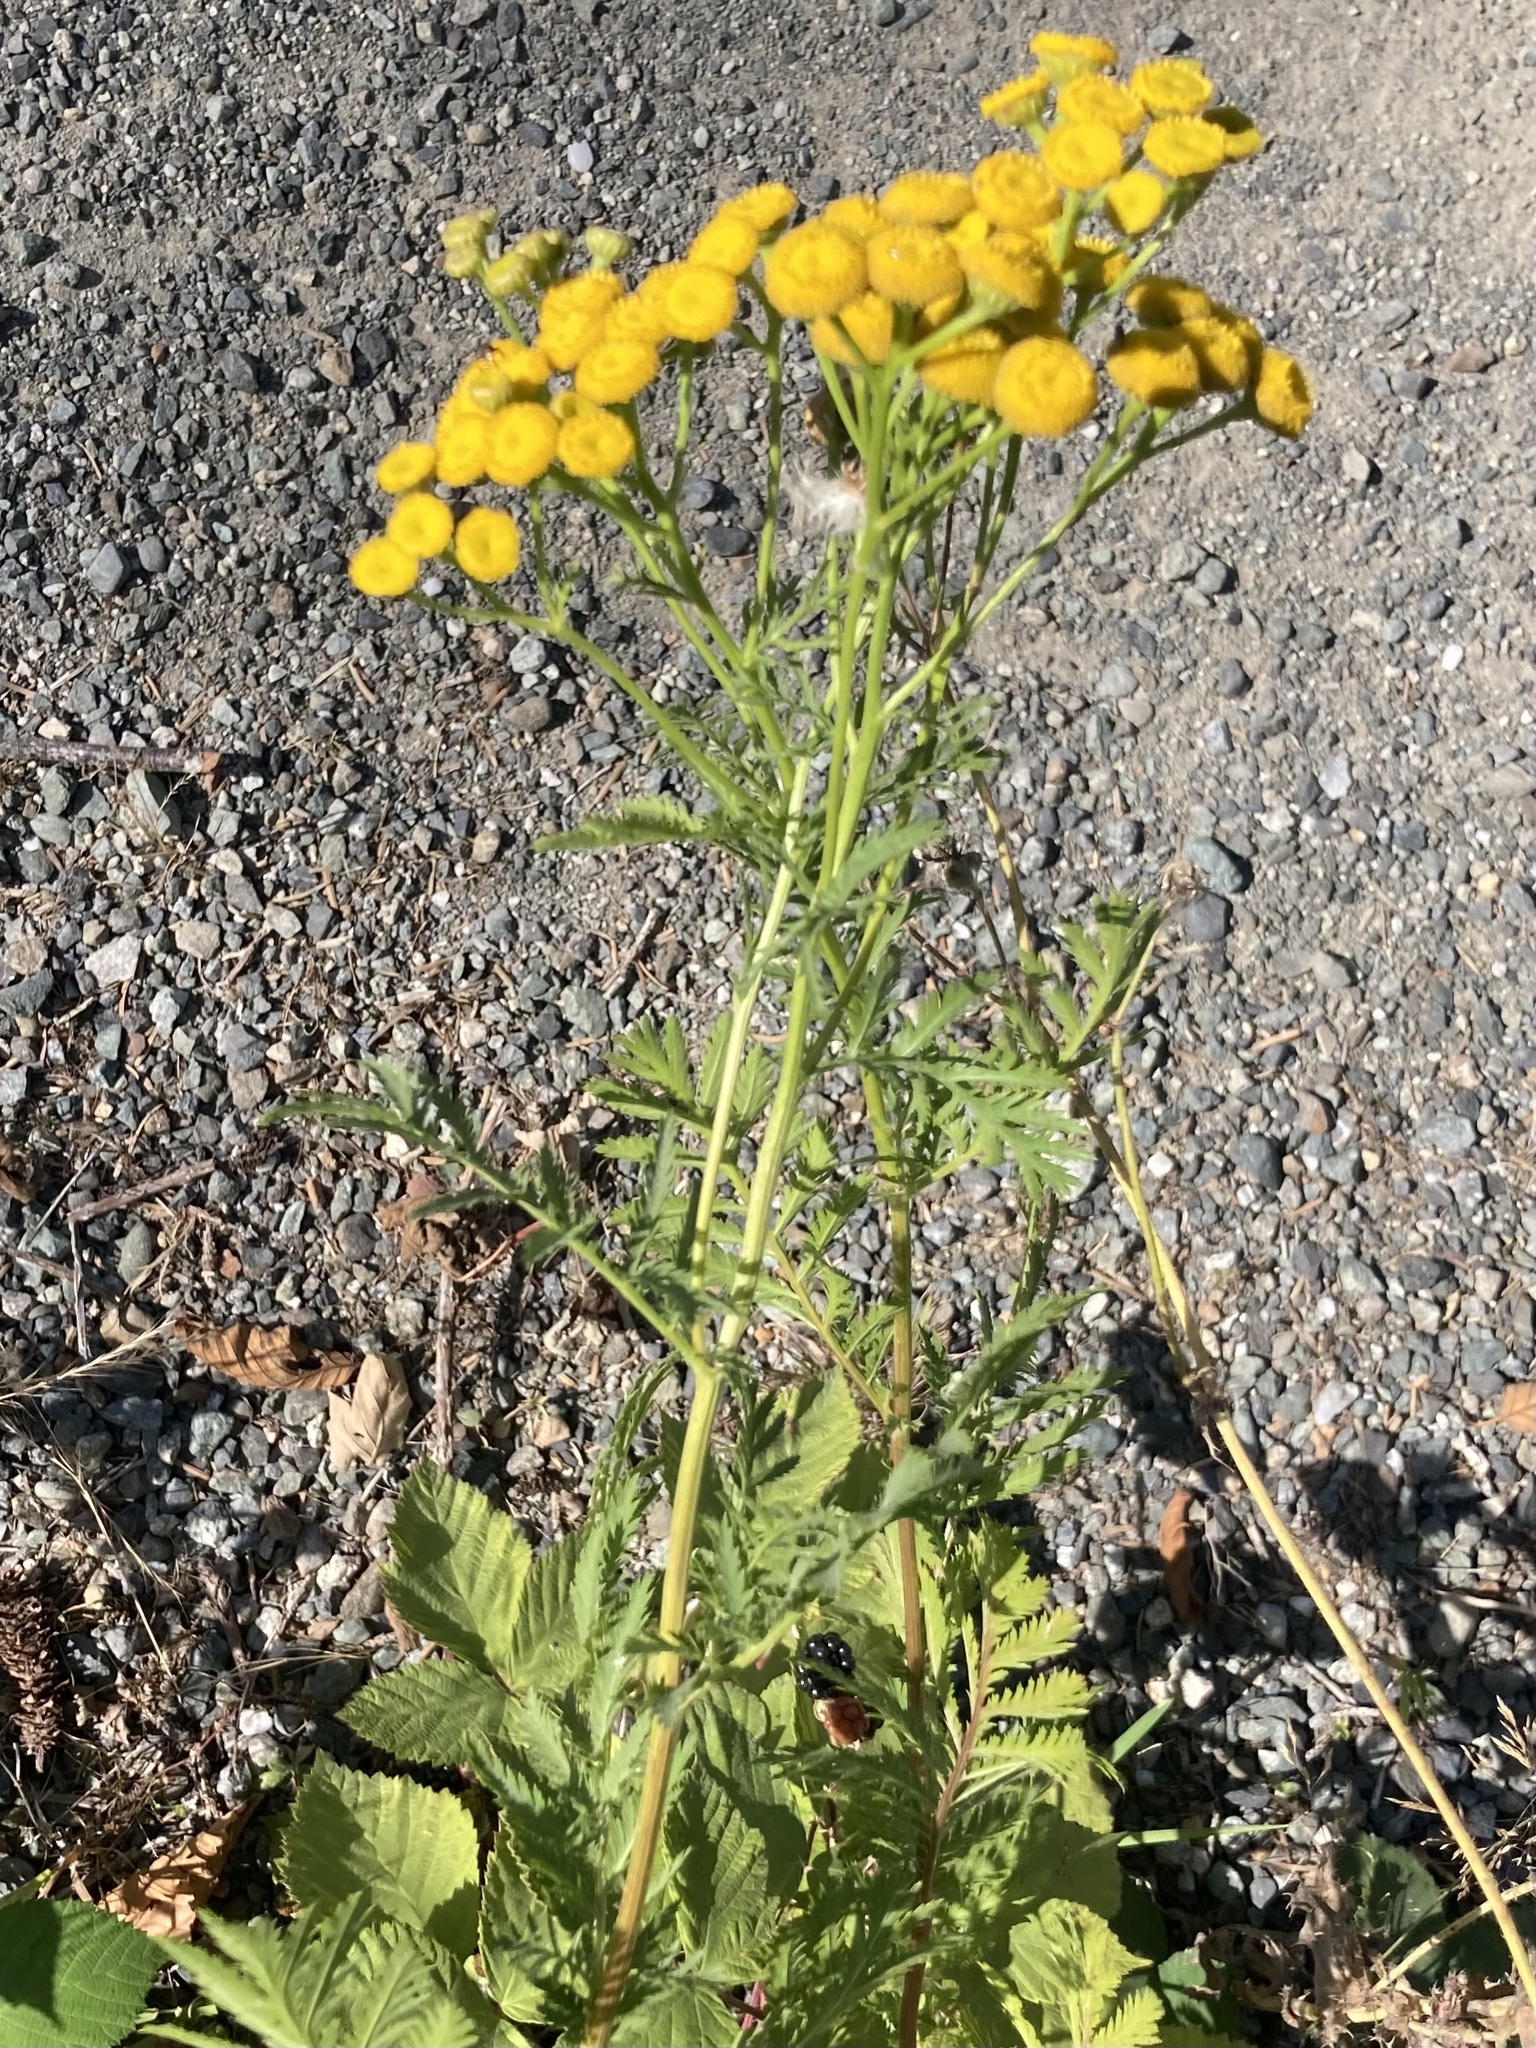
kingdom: Plantae
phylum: Tracheophyta
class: Magnoliopsida
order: Asterales
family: Asteraceae
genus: Tanacetum
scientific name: Tanacetum vulgare
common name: Common tansy
